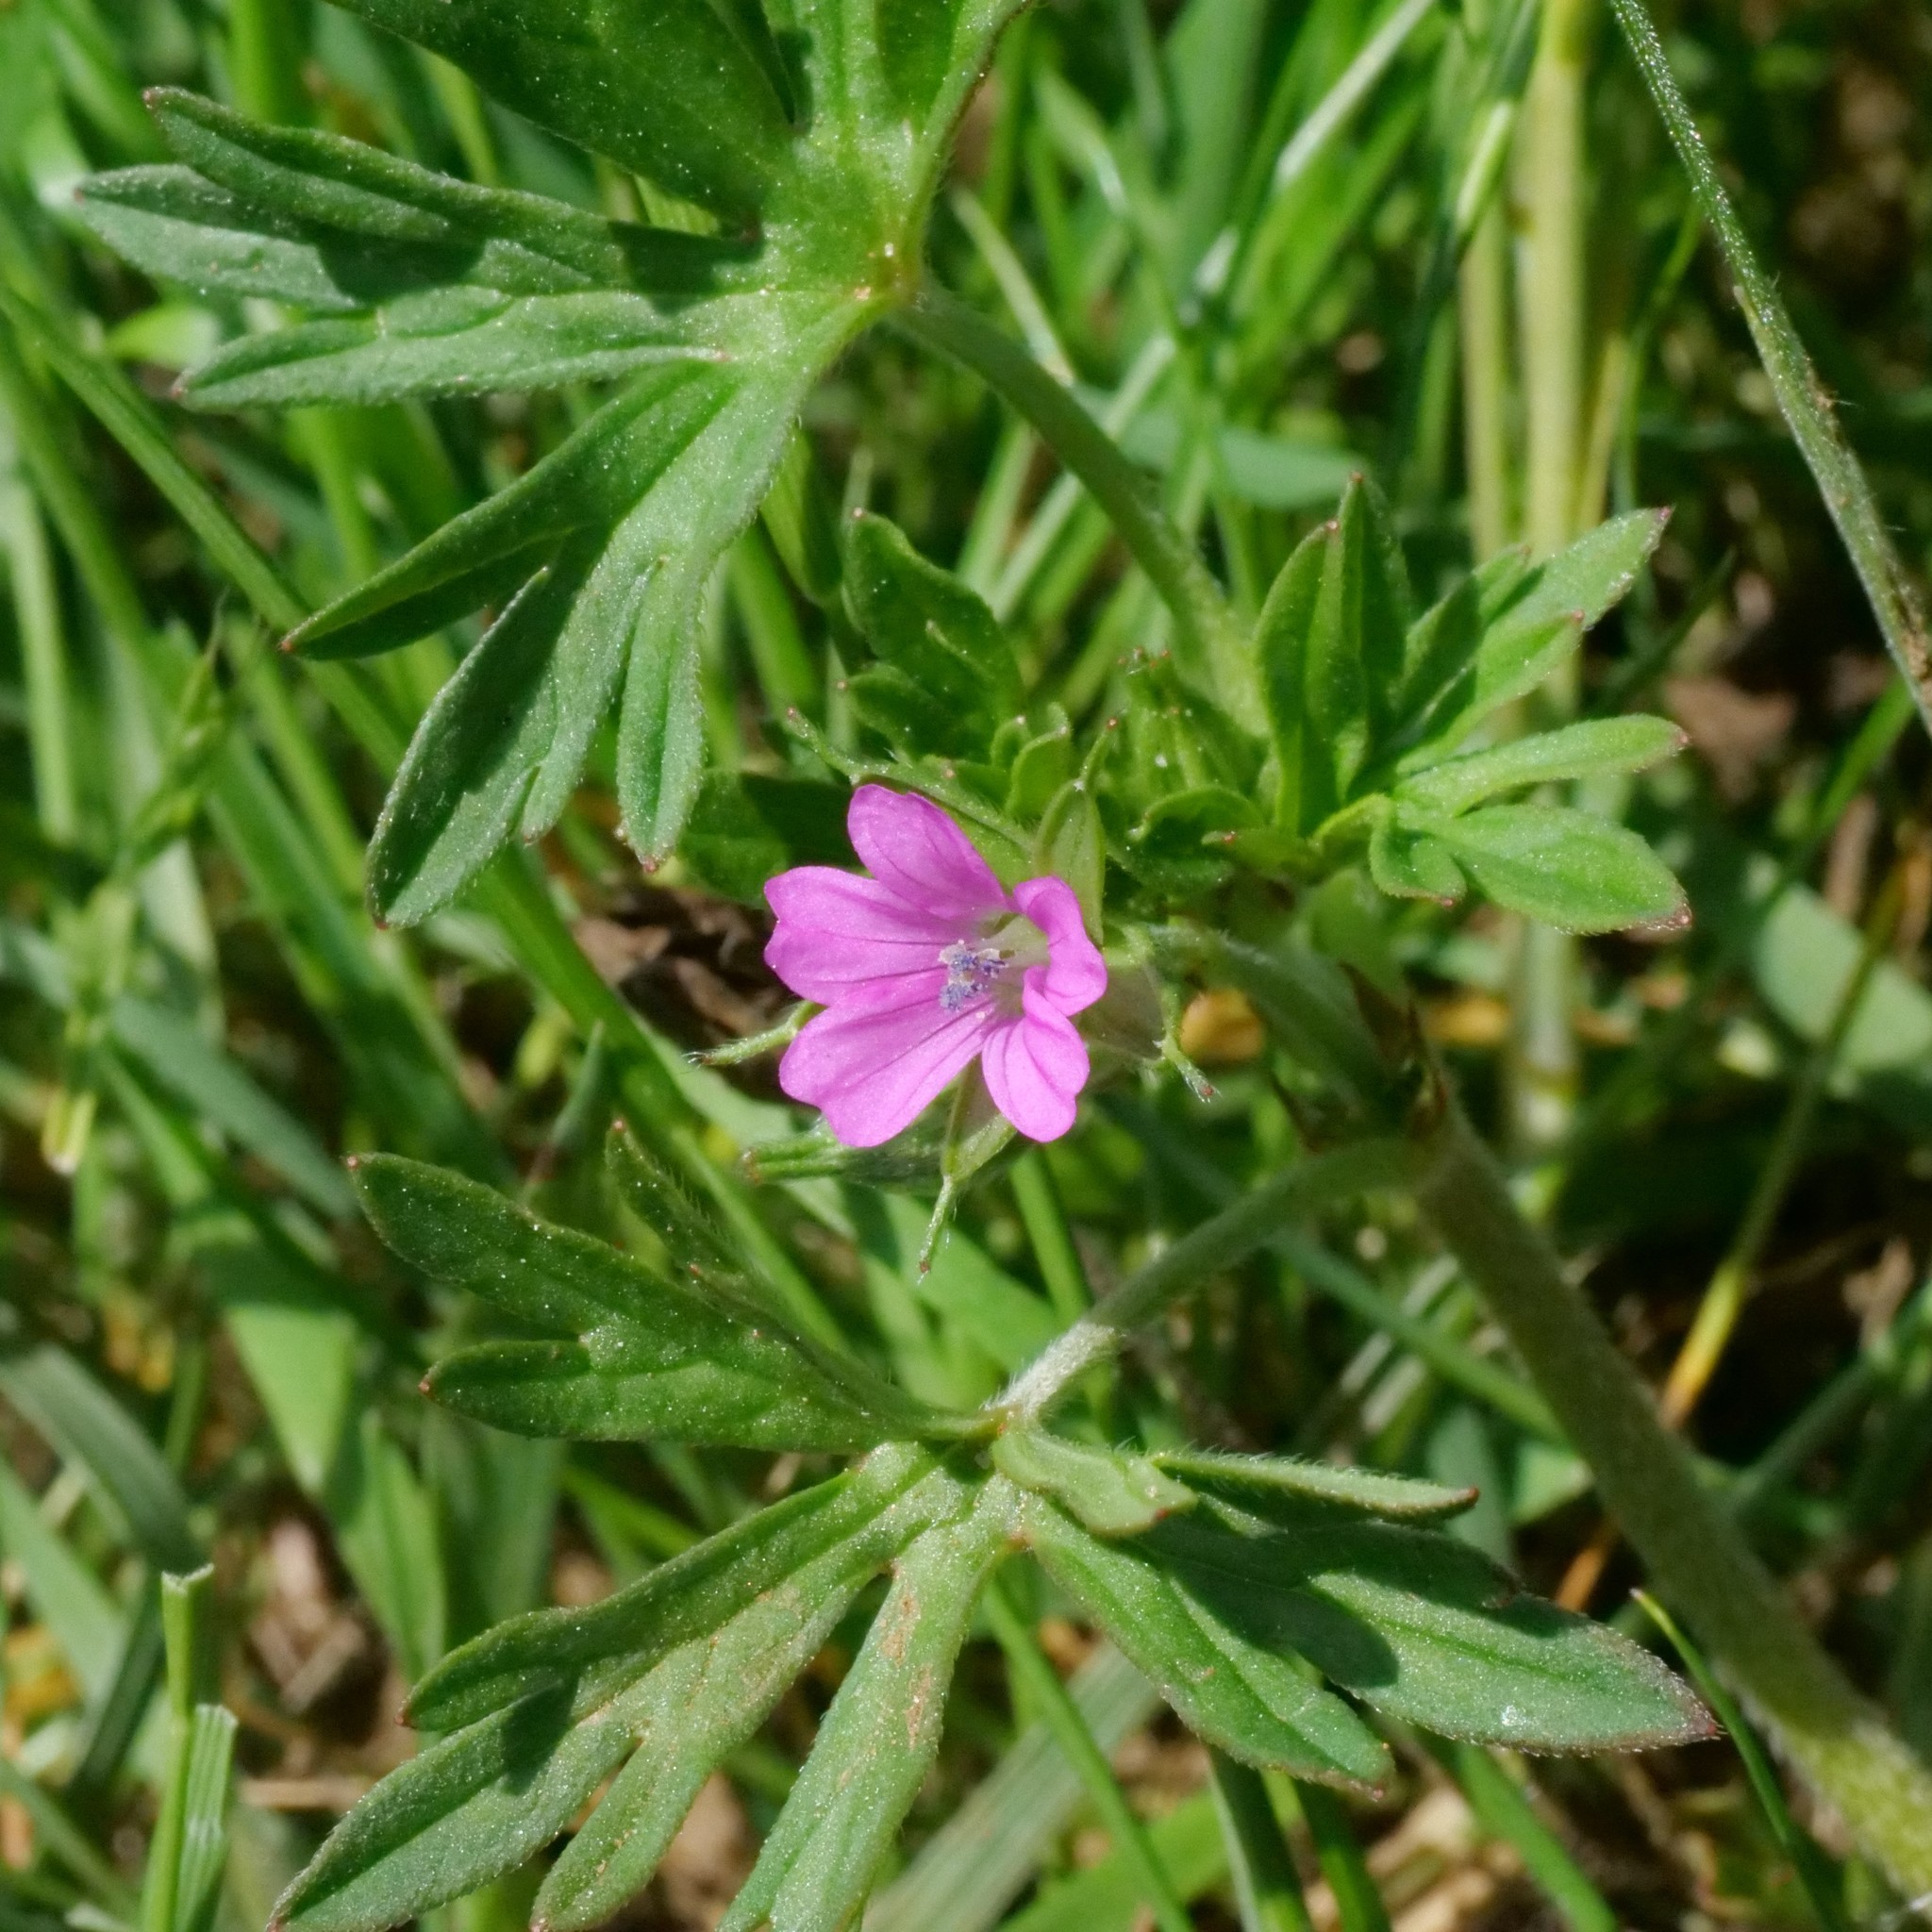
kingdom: Plantae
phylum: Tracheophyta
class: Magnoliopsida
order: Geraniales
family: Geraniaceae
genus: Geranium
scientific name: Geranium dissectum
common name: Cut-leaved crane's-bill
